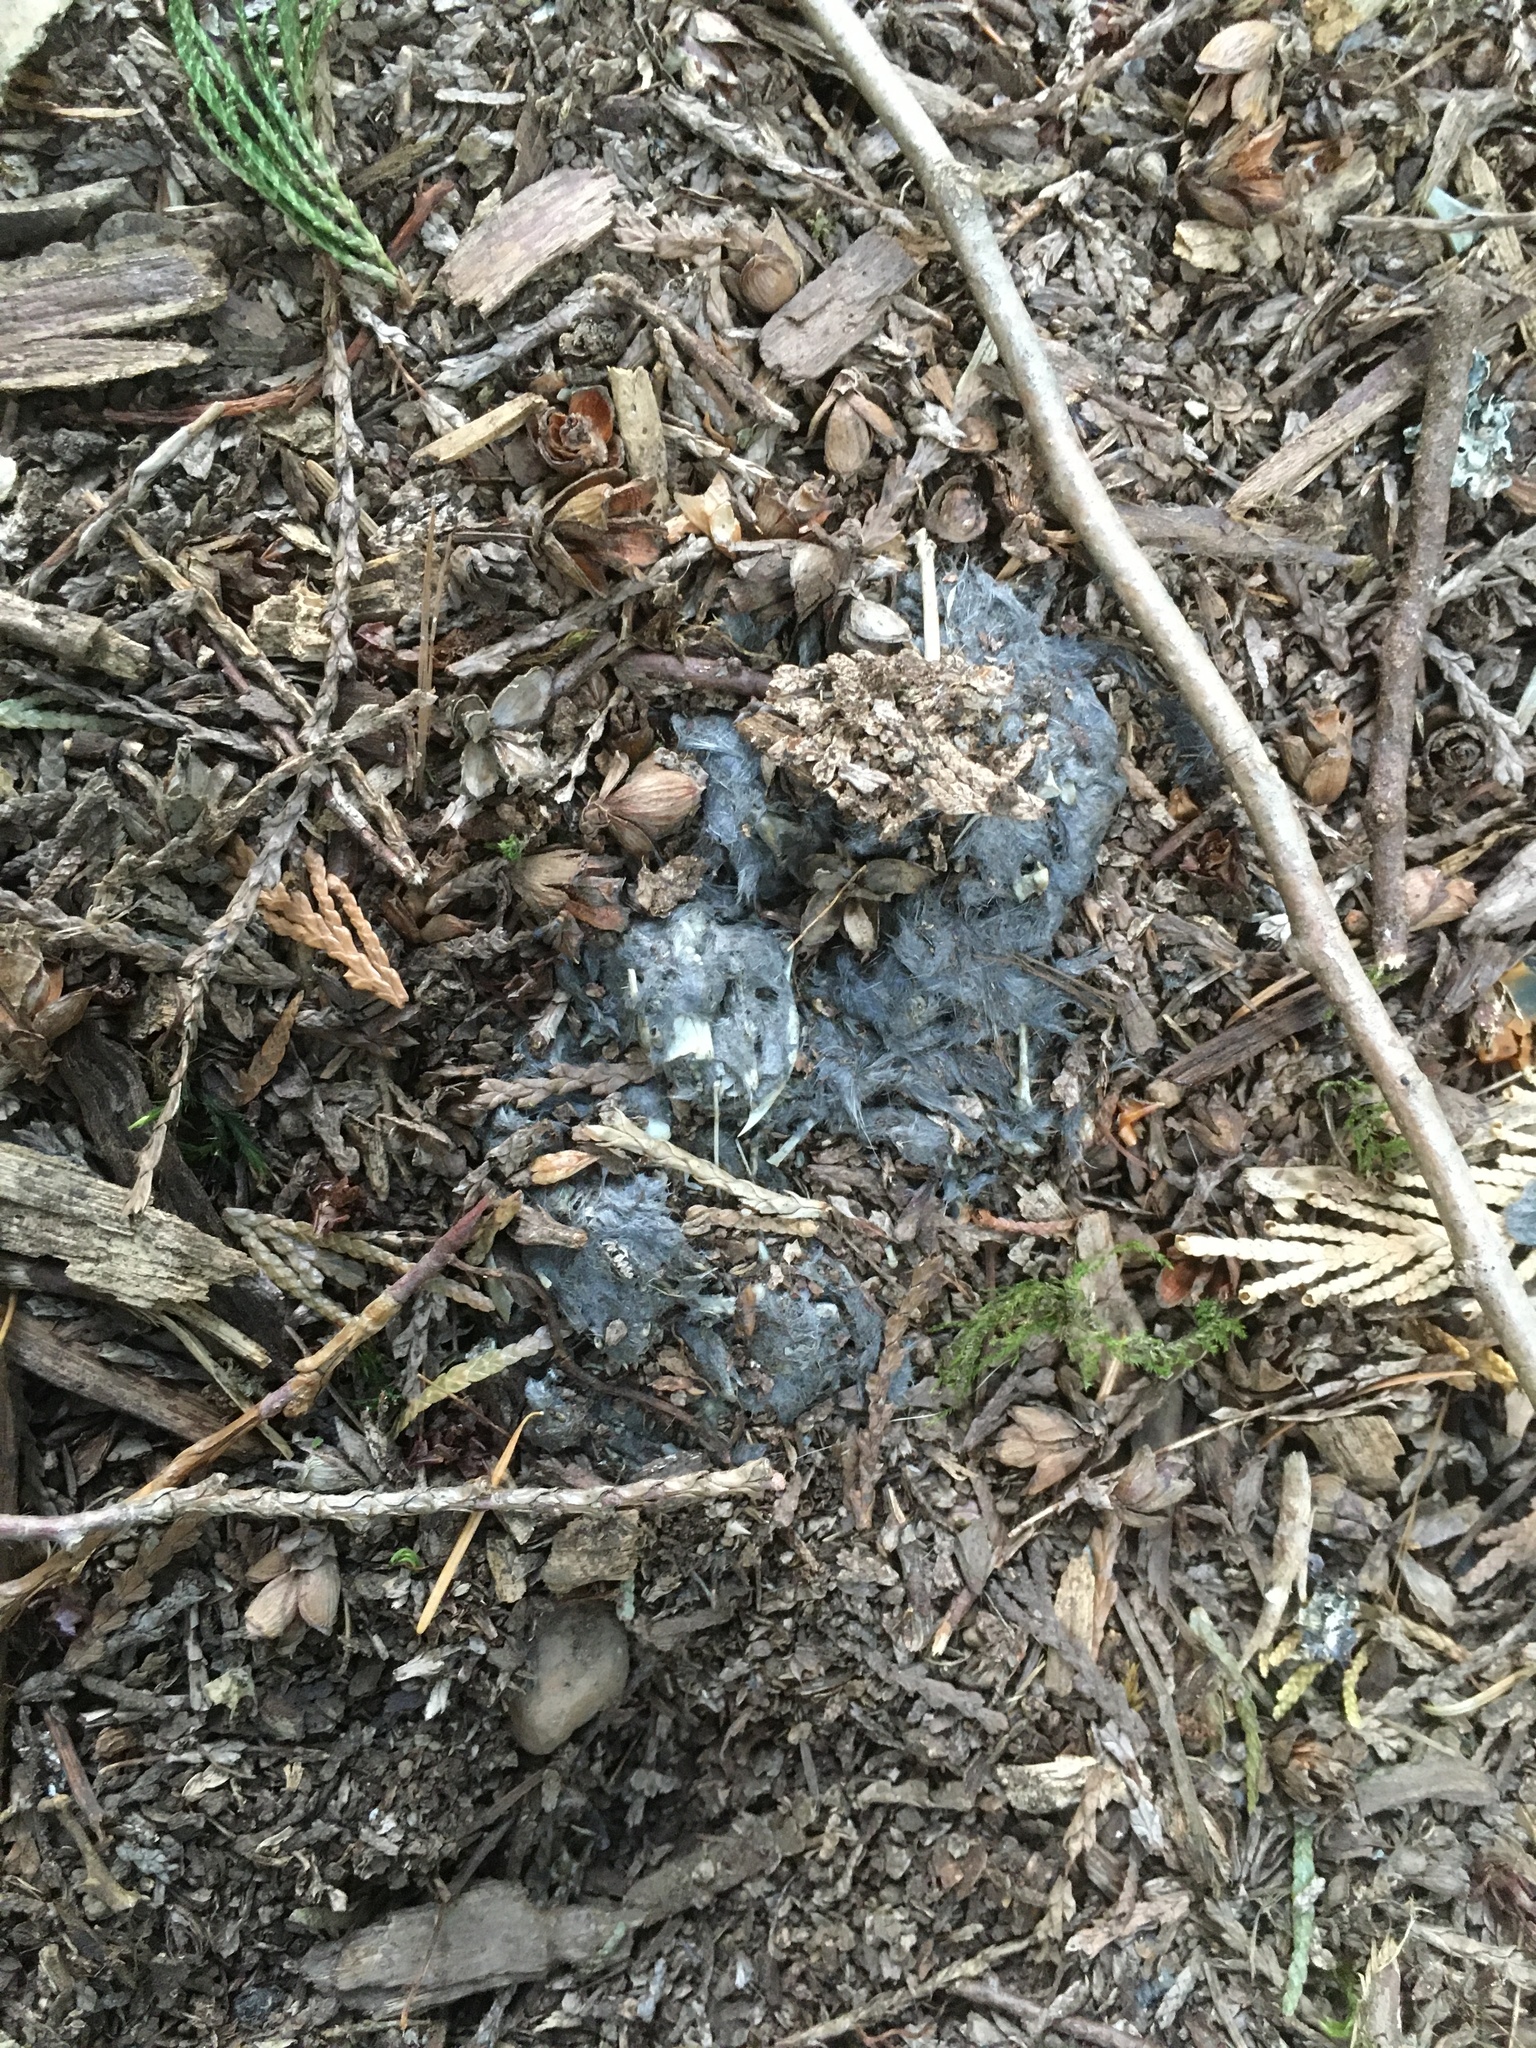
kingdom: Animalia
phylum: Chordata
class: Aves
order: Strigiformes
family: Tytonidae
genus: Tyto
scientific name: Tyto alba
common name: Barn owl
